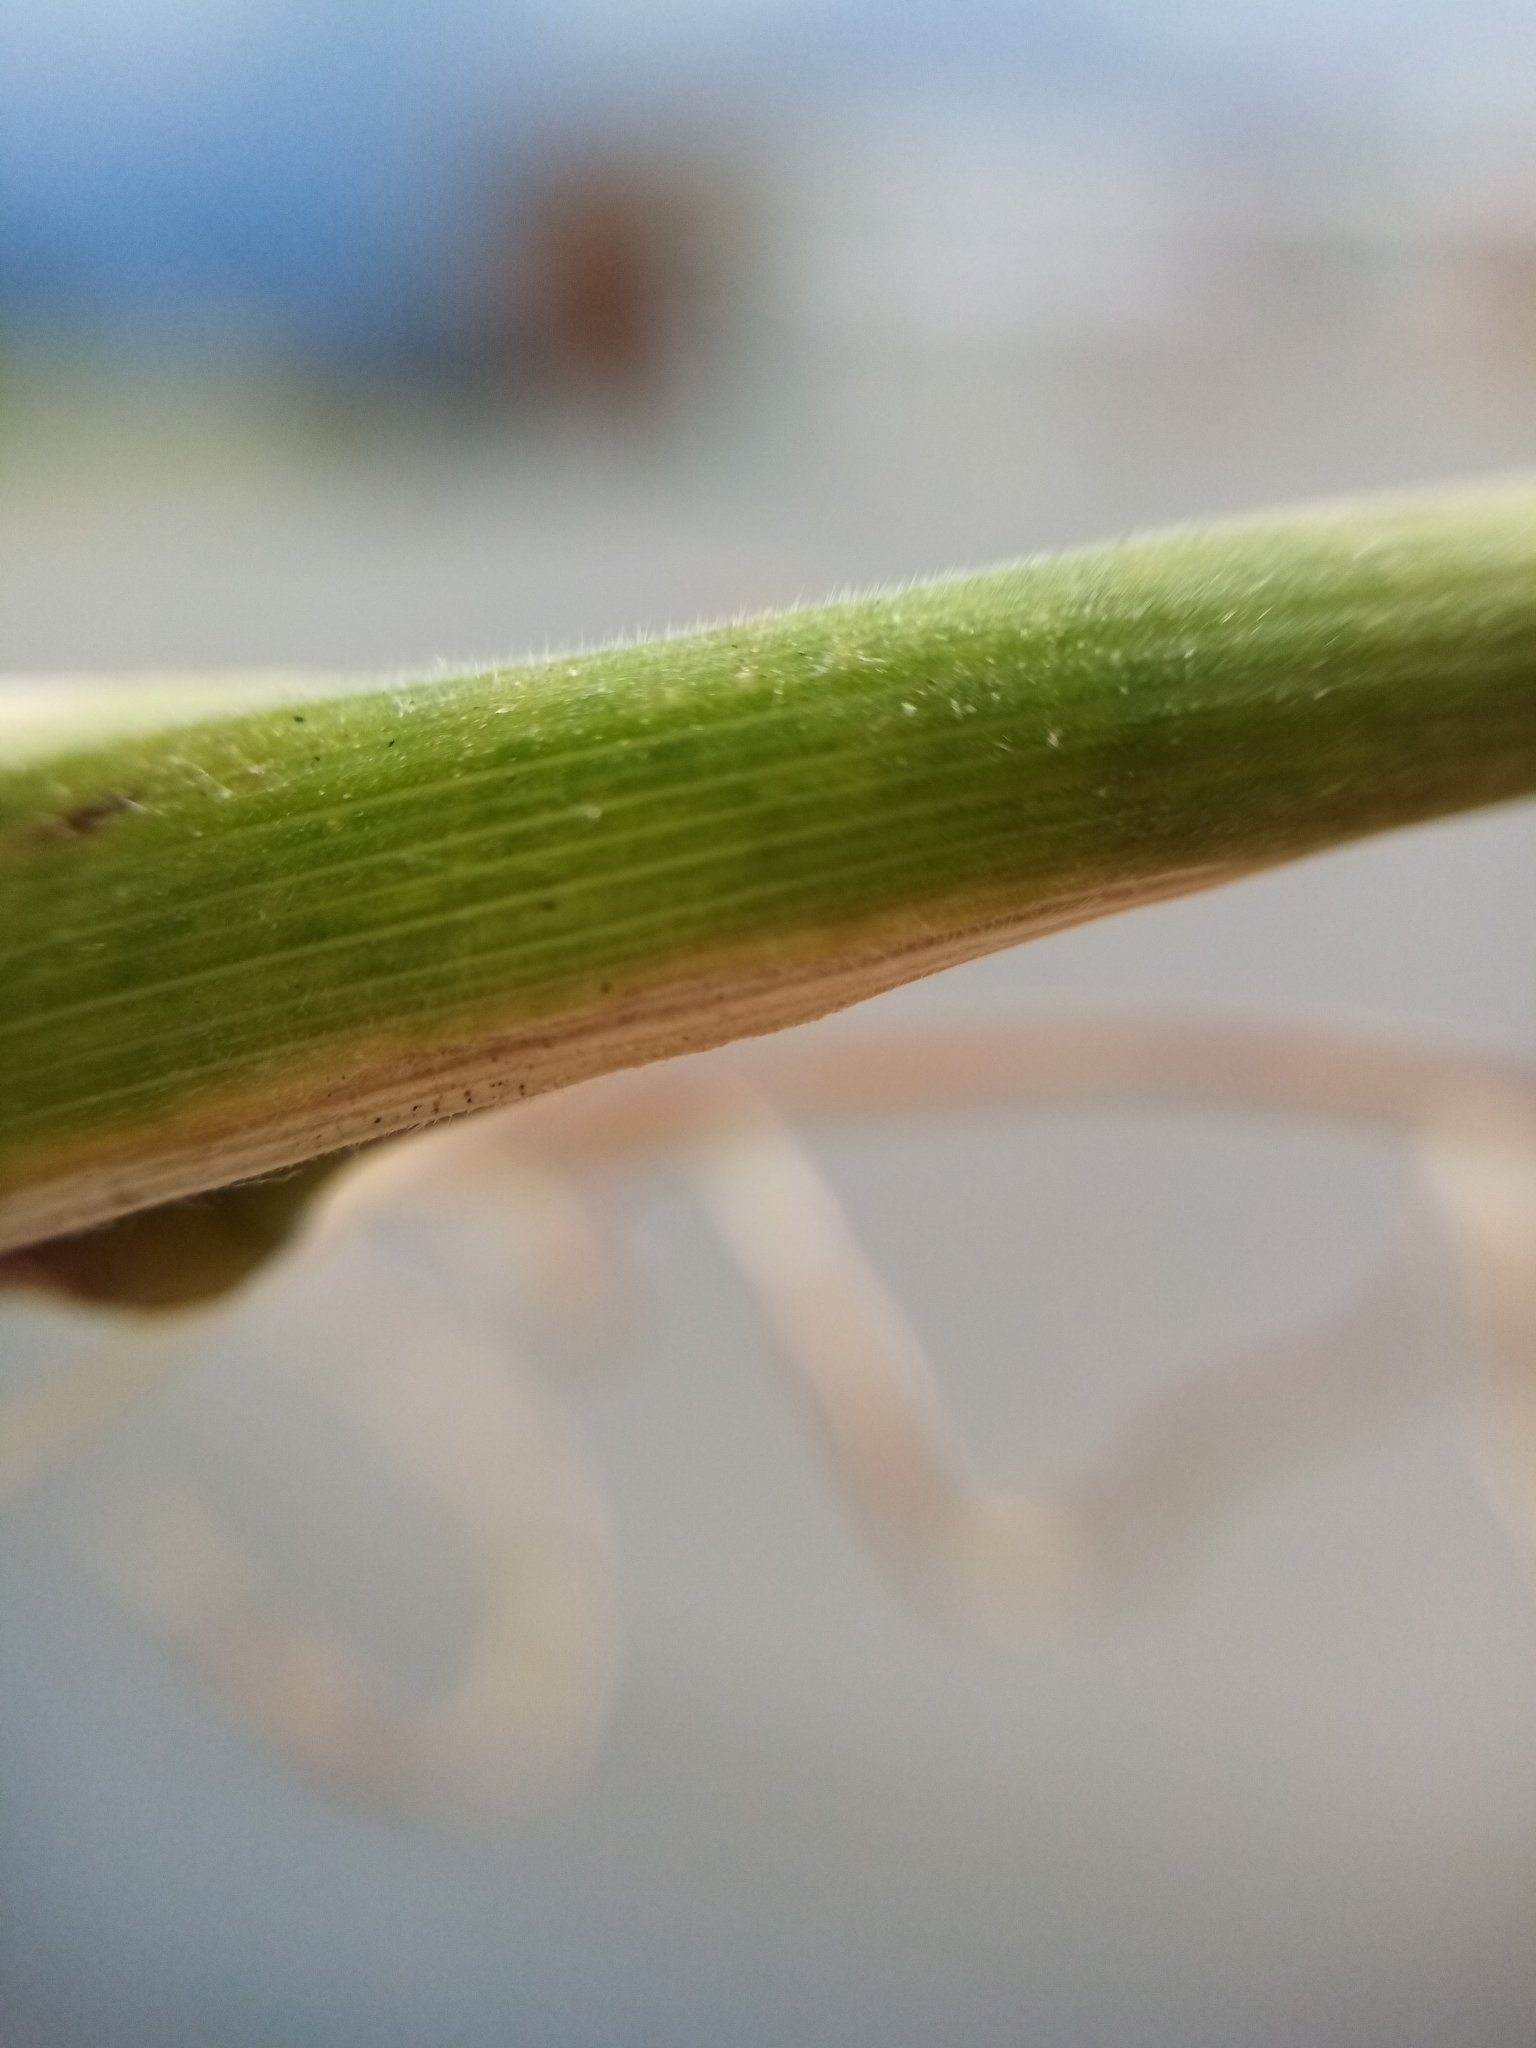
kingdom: Plantae
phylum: Tracheophyta
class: Liliopsida
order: Poales
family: Poaceae
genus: Bromus
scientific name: Bromus cebadilla
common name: Southern brome
